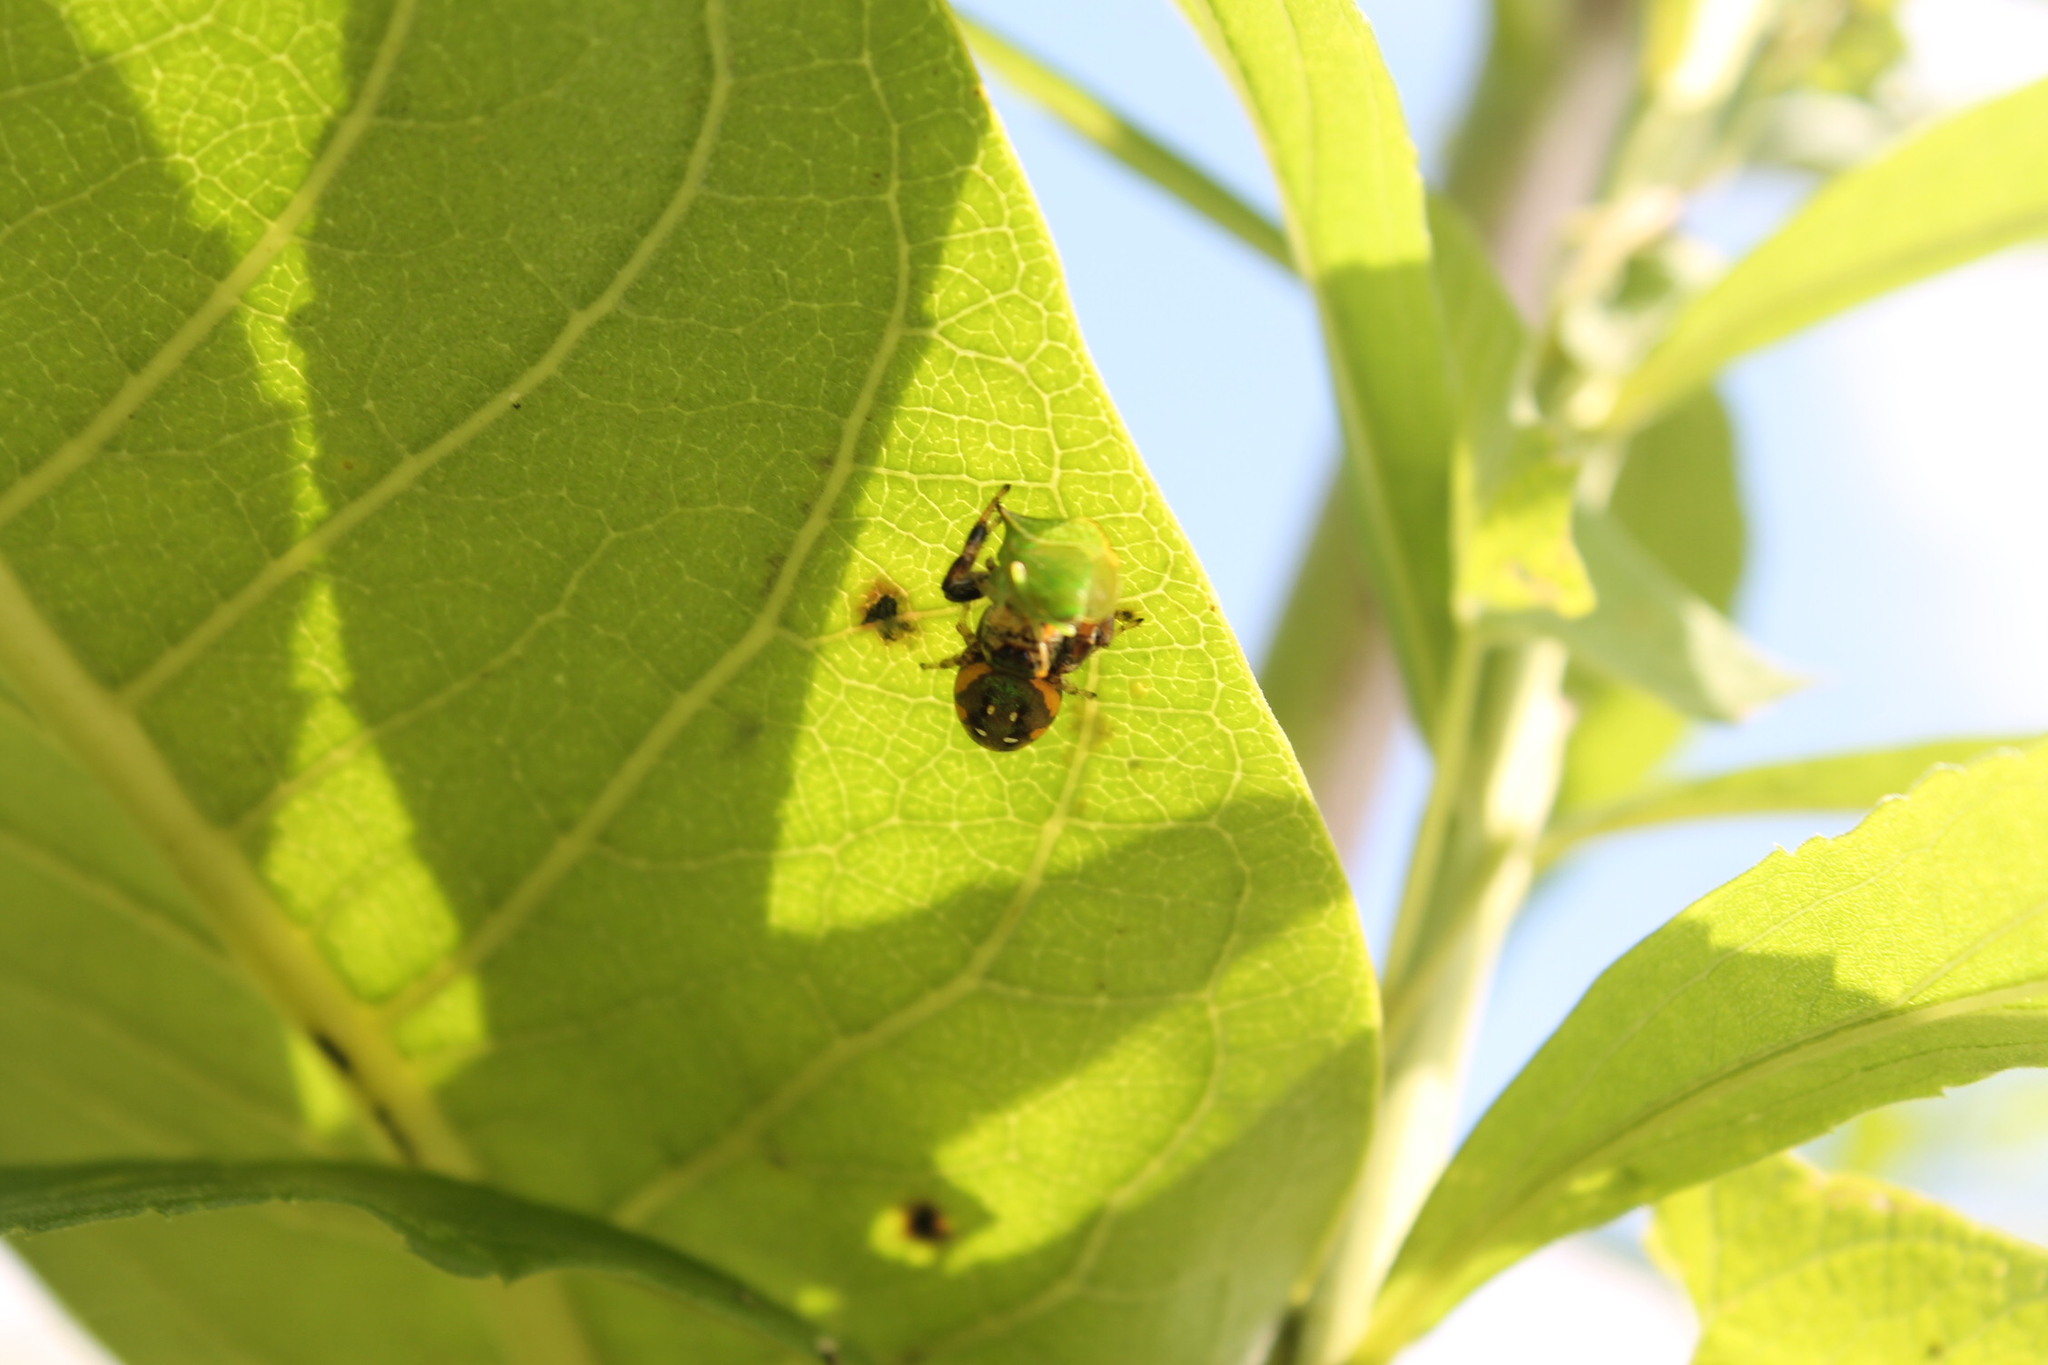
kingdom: Animalia
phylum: Arthropoda
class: Arachnida
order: Araneae
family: Salticidae
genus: Paraphidippus
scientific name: Paraphidippus aurantius
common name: Jumping spiders
